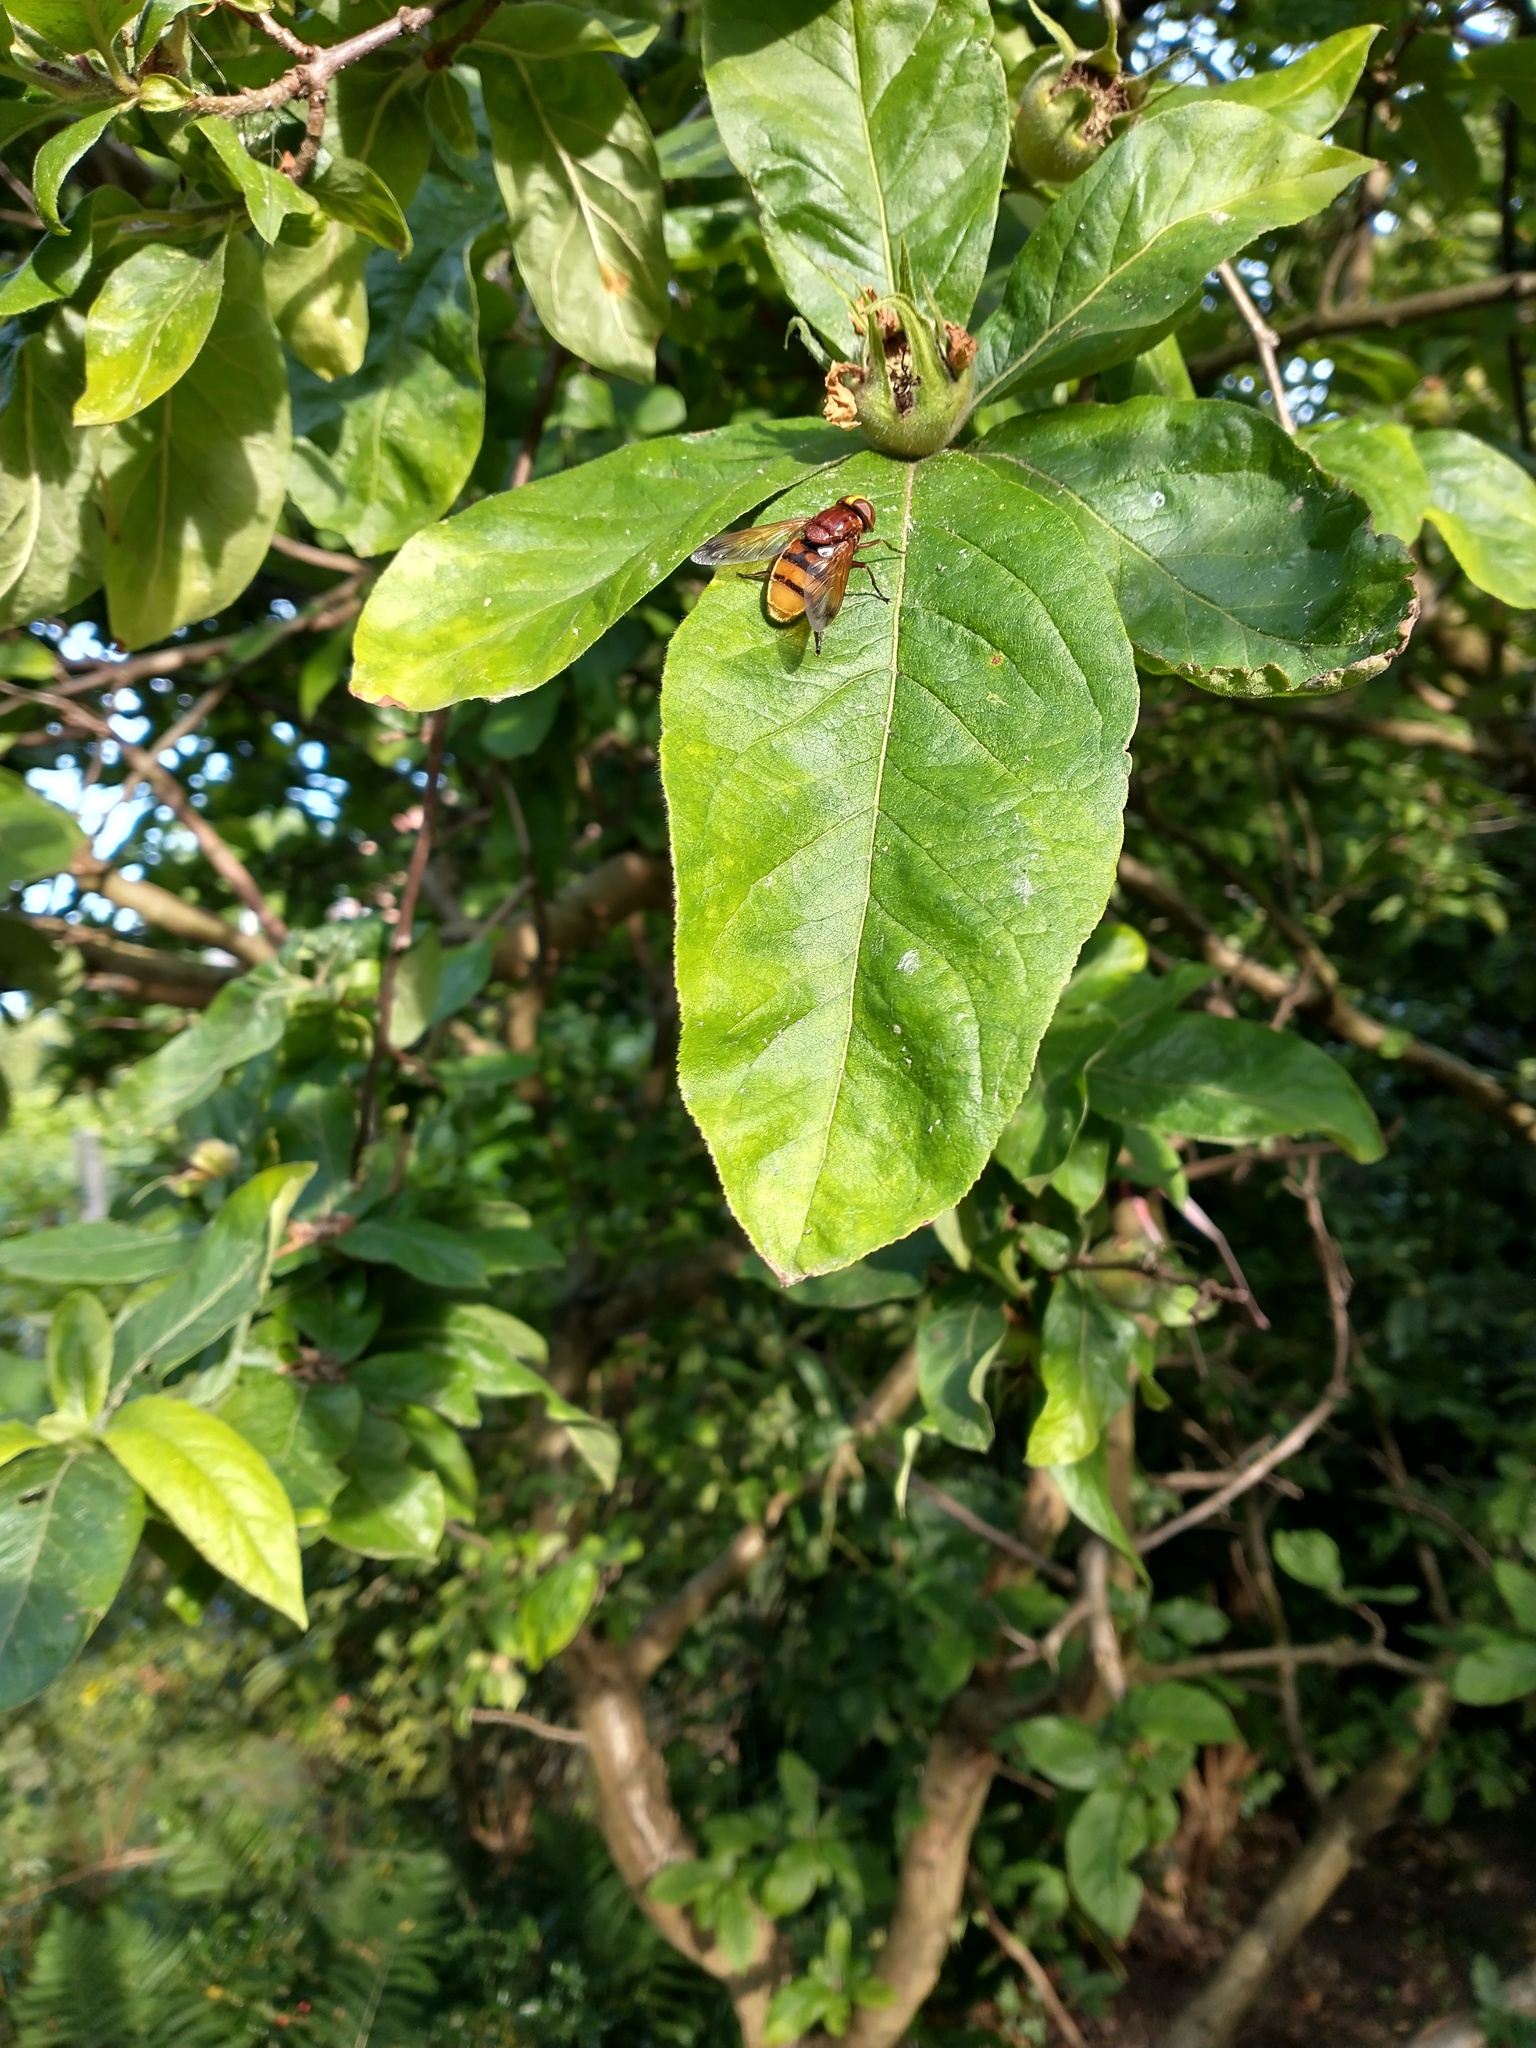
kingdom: Animalia
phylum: Arthropoda
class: Insecta
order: Diptera
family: Syrphidae
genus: Volucella
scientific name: Volucella zonaria
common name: Hornet hoverfly
